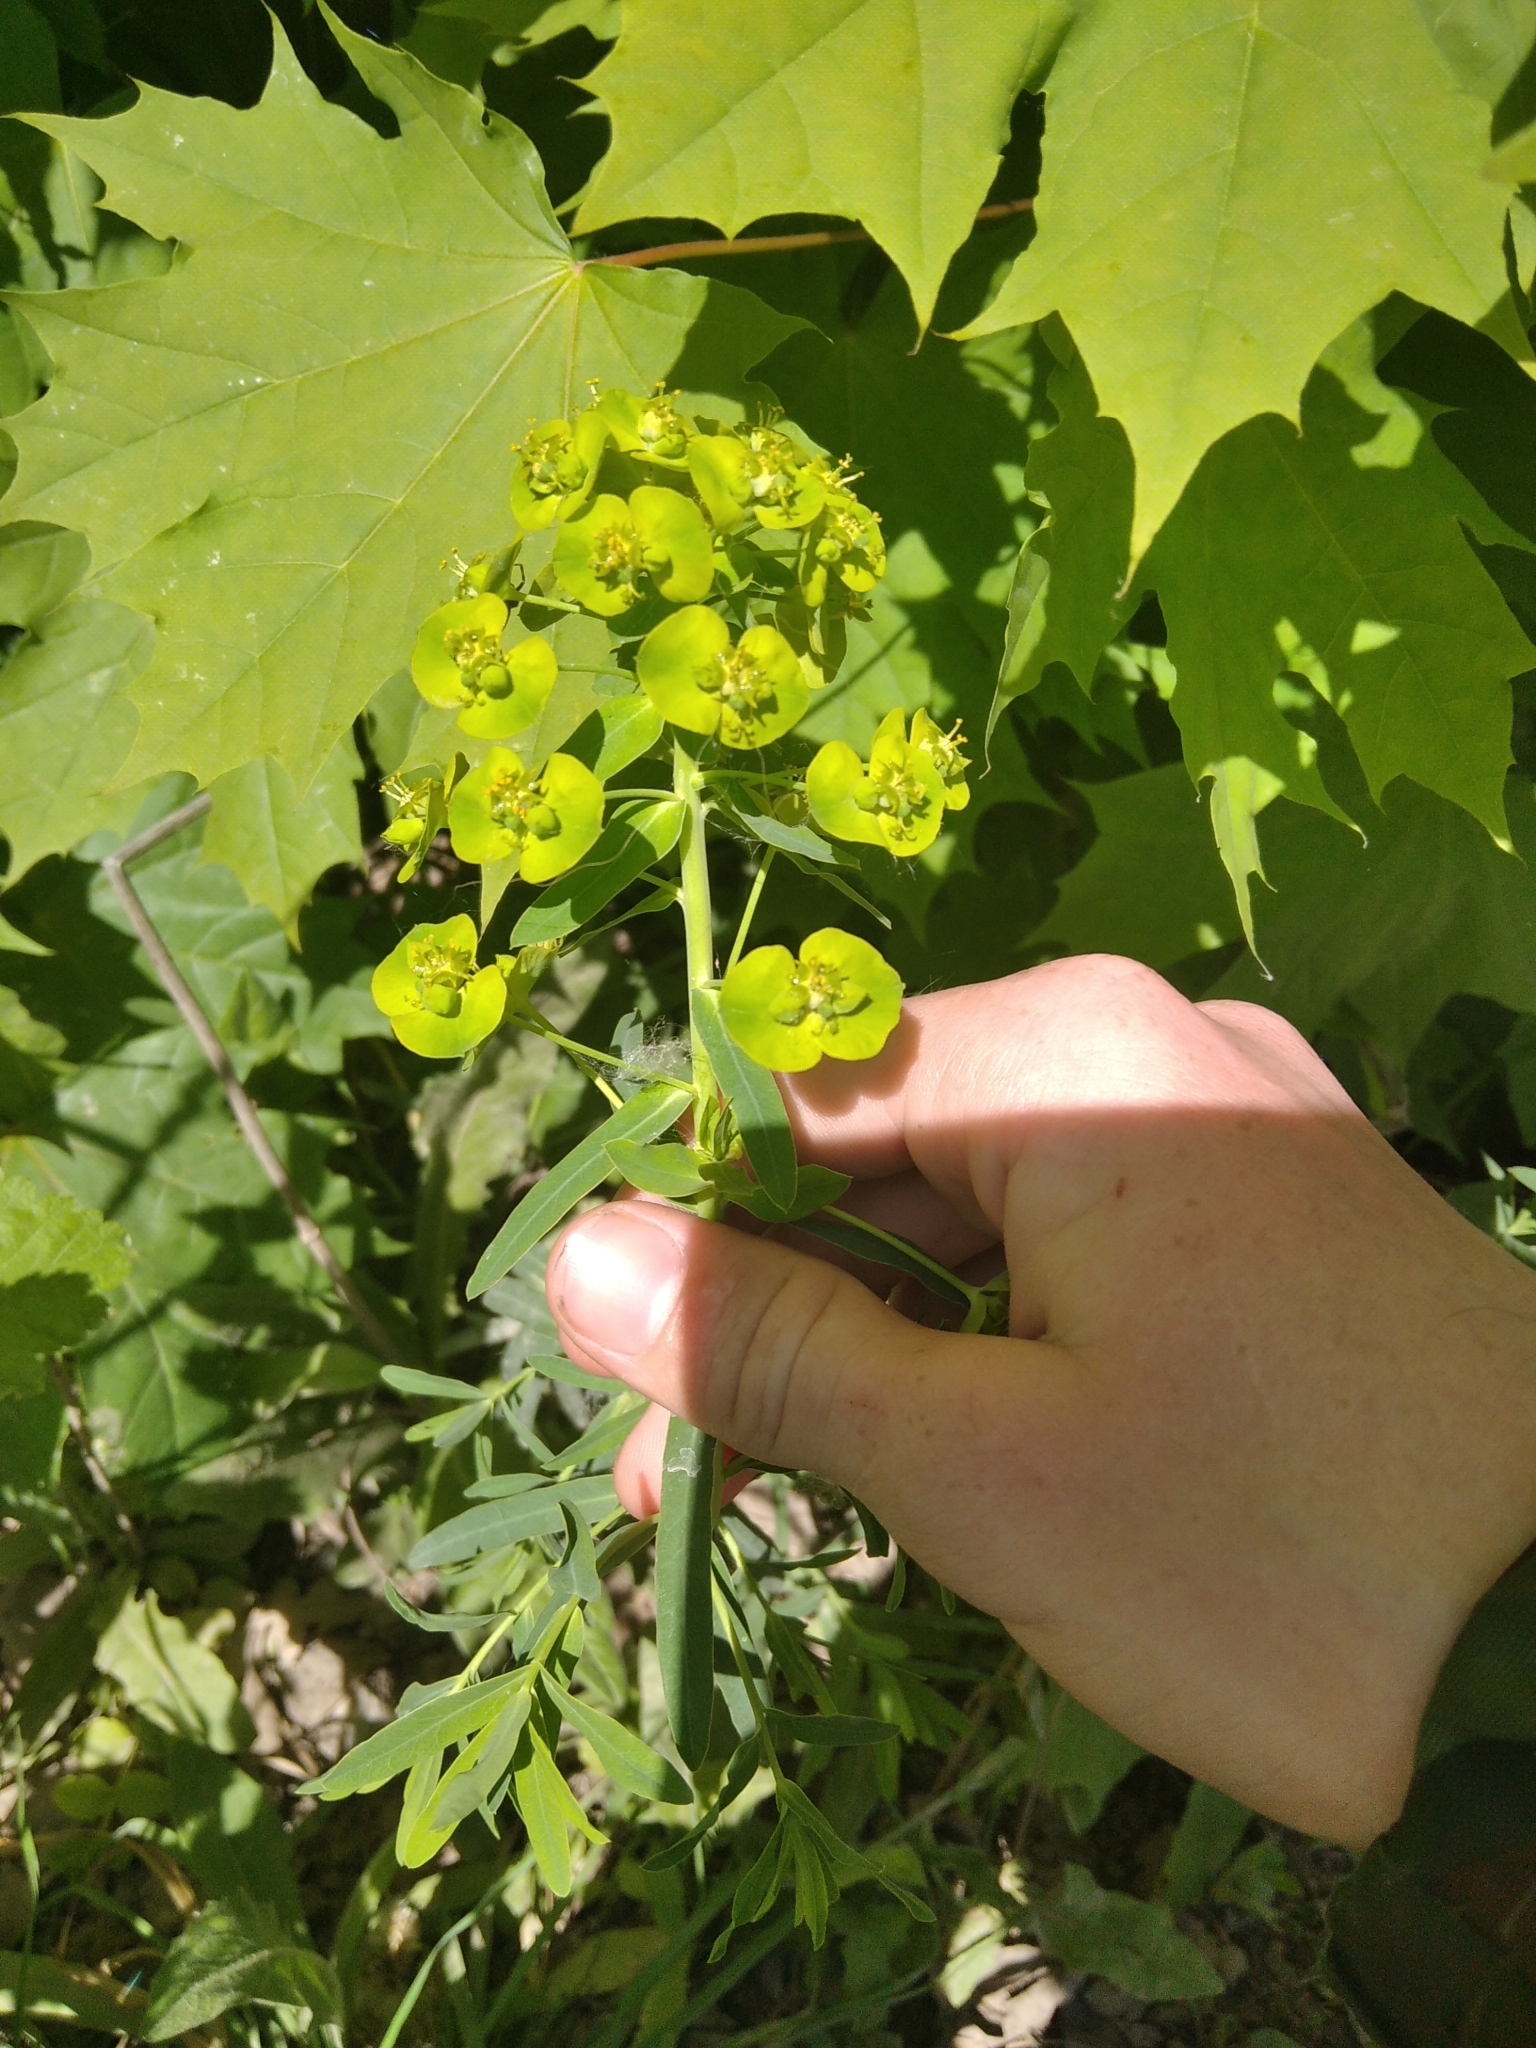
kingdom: Plantae
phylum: Tracheophyta
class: Magnoliopsida
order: Malpighiales
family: Euphorbiaceae
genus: Euphorbia
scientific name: Euphorbia virgata
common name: Leafy spurge
